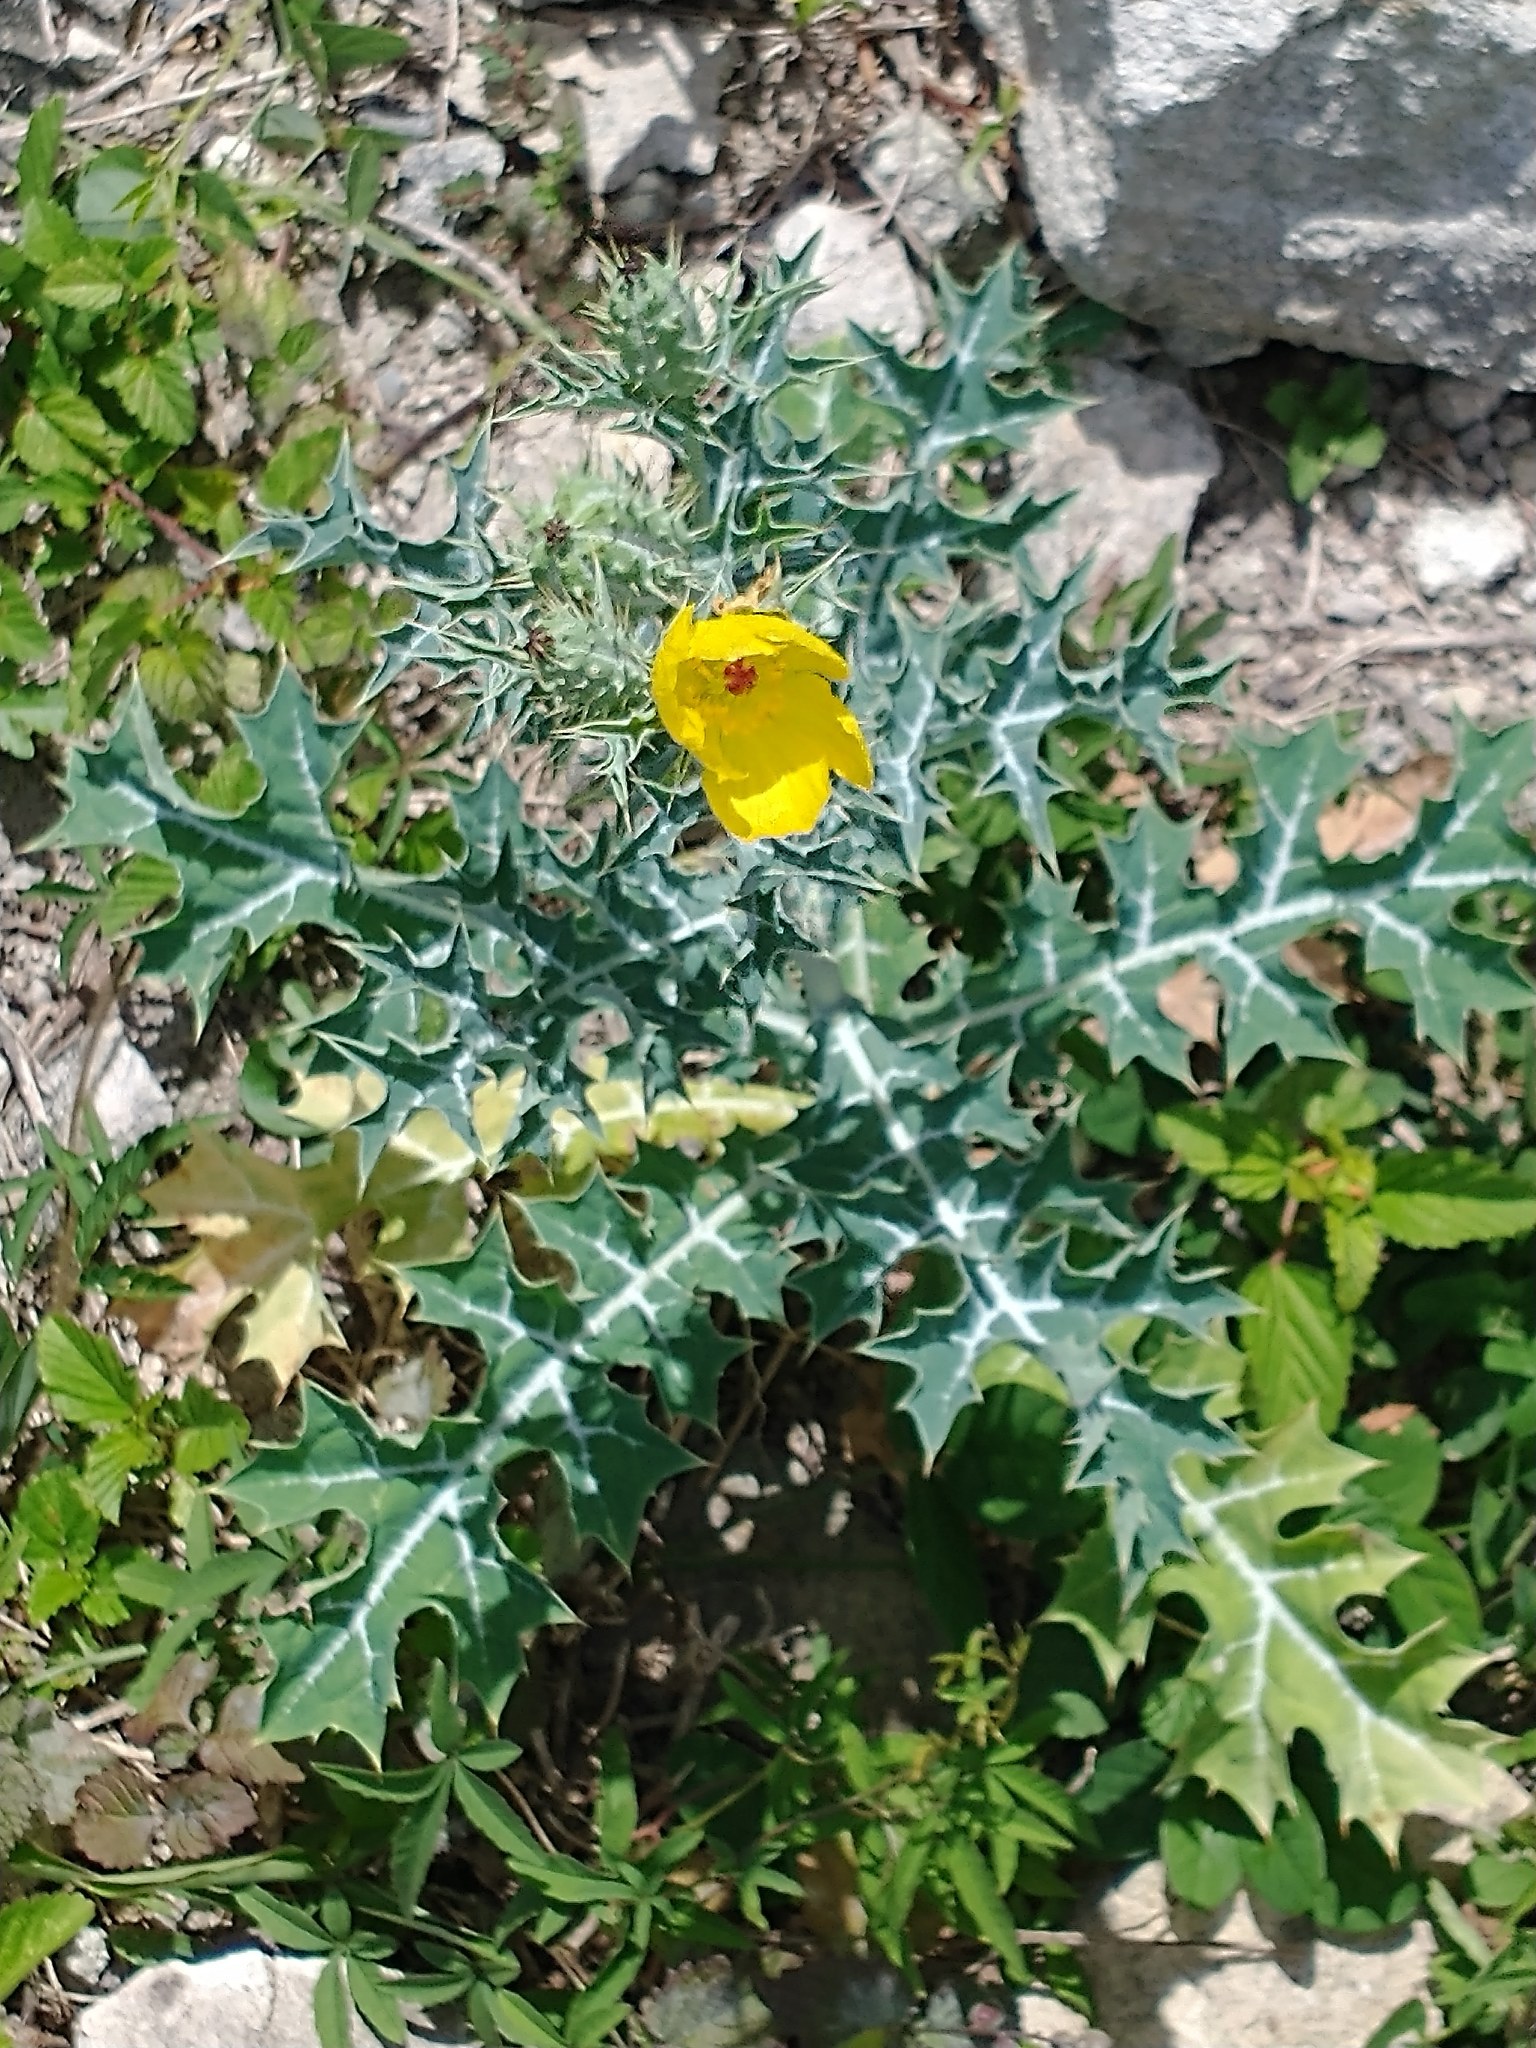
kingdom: Plantae
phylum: Tracheophyta
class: Magnoliopsida
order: Ranunculales
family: Papaveraceae
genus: Argemone
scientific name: Argemone mexicana
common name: Mexican poppy
